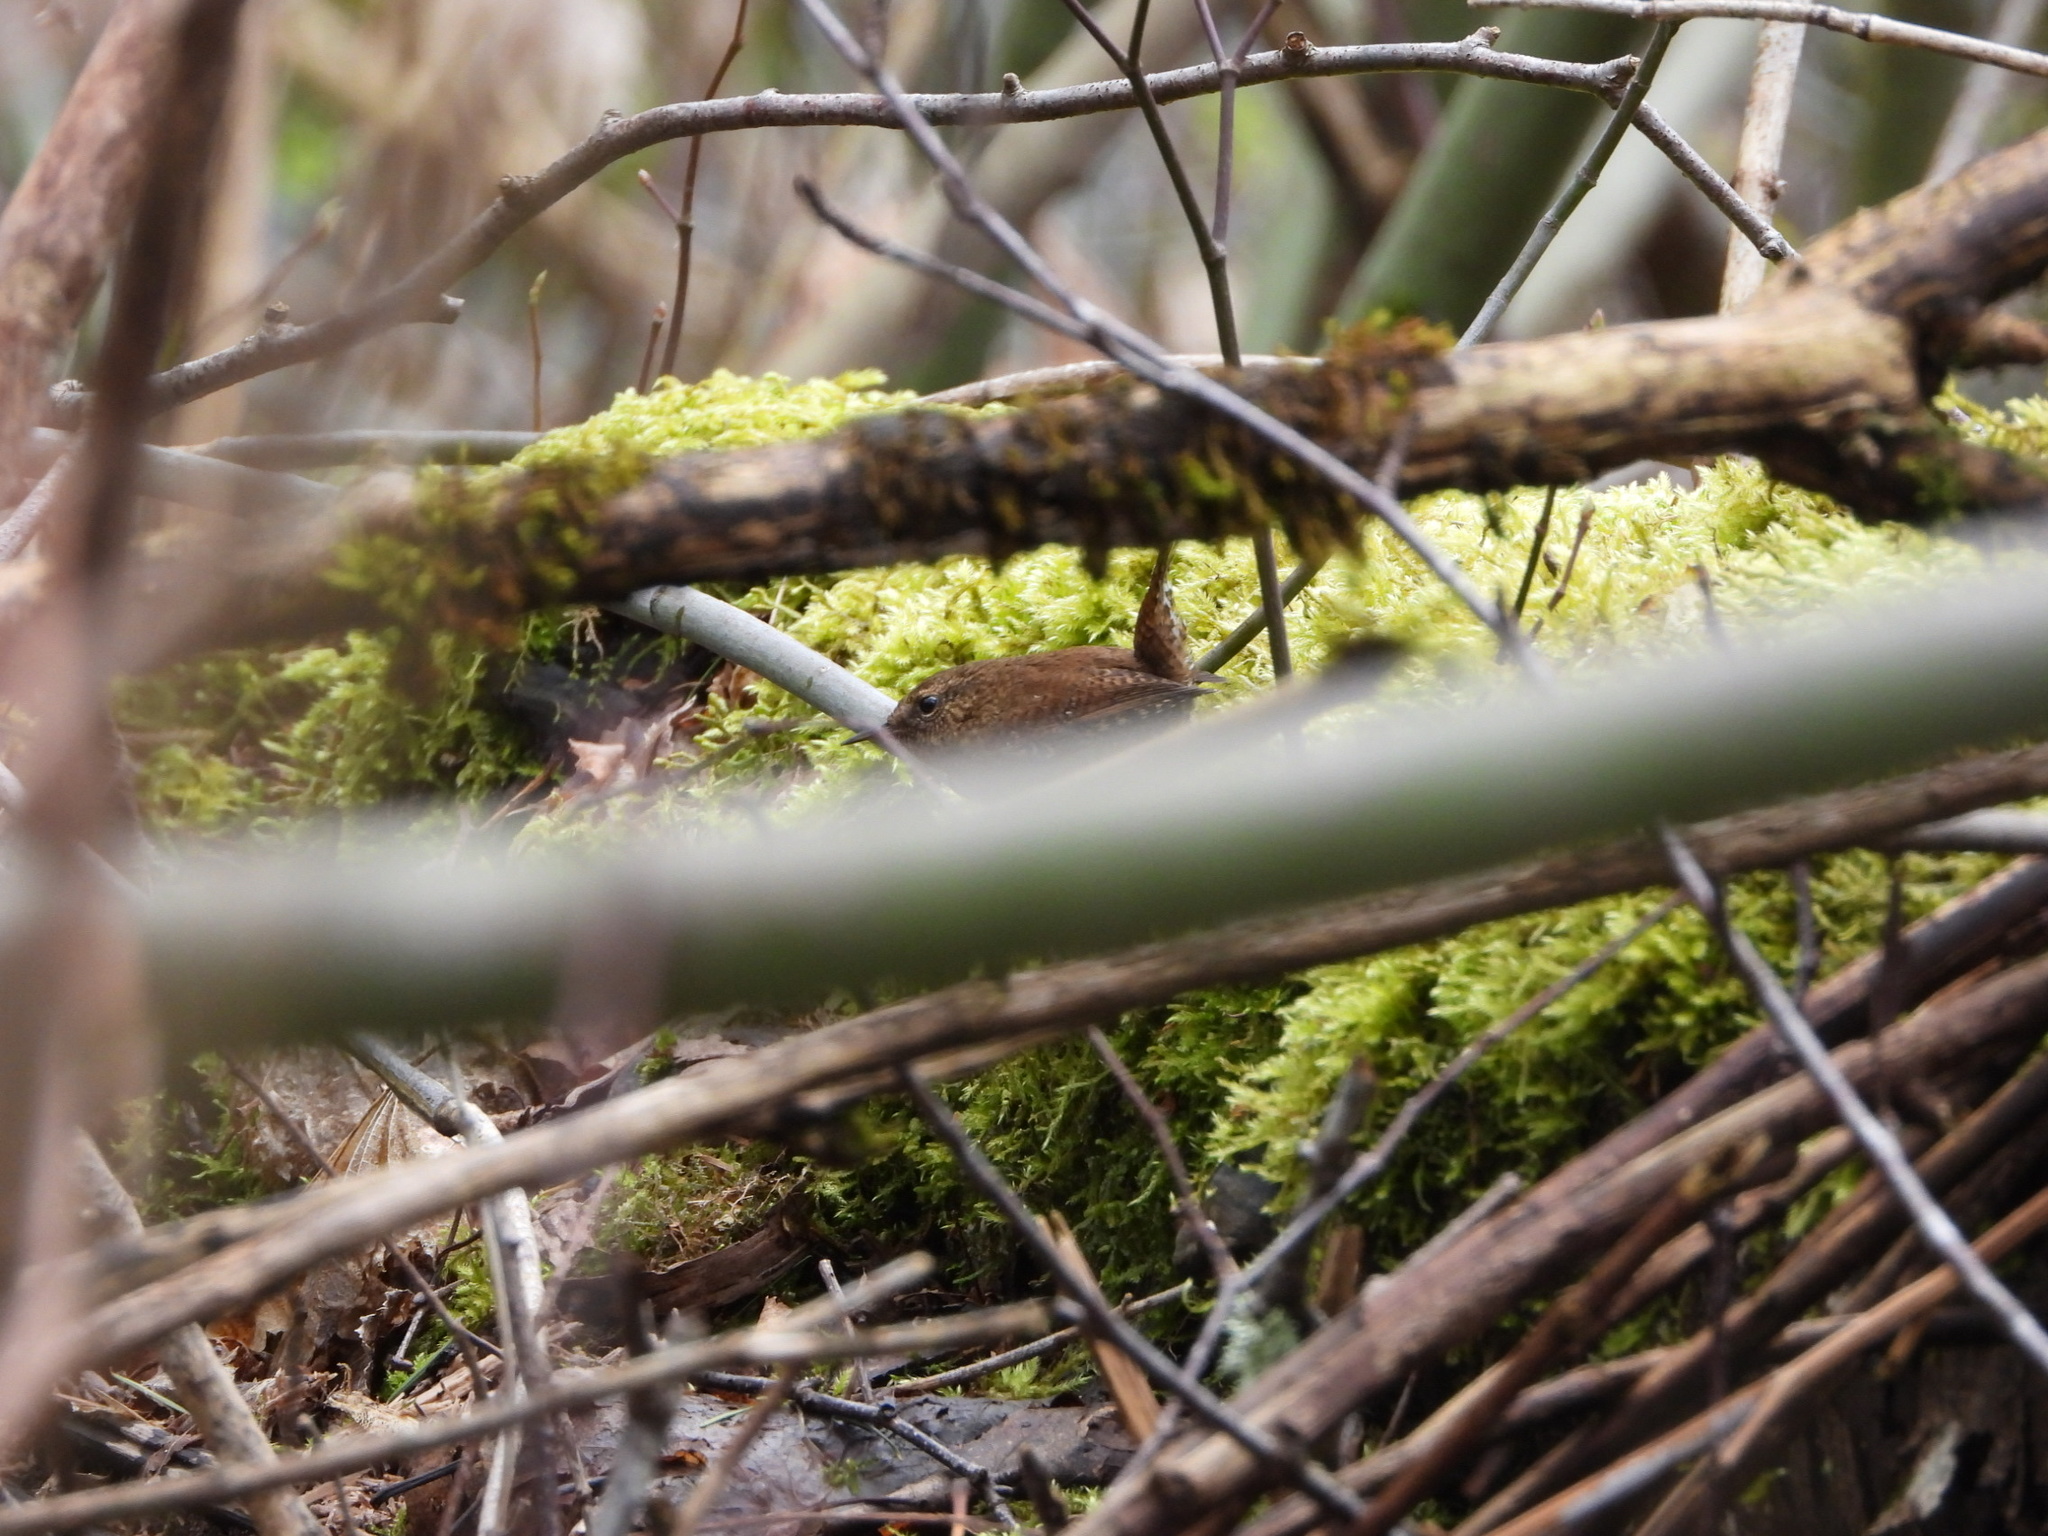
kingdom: Animalia
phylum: Chordata
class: Aves
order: Passeriformes
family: Troglodytidae
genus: Troglodytes
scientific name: Troglodytes pacificus
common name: Pacific wren
